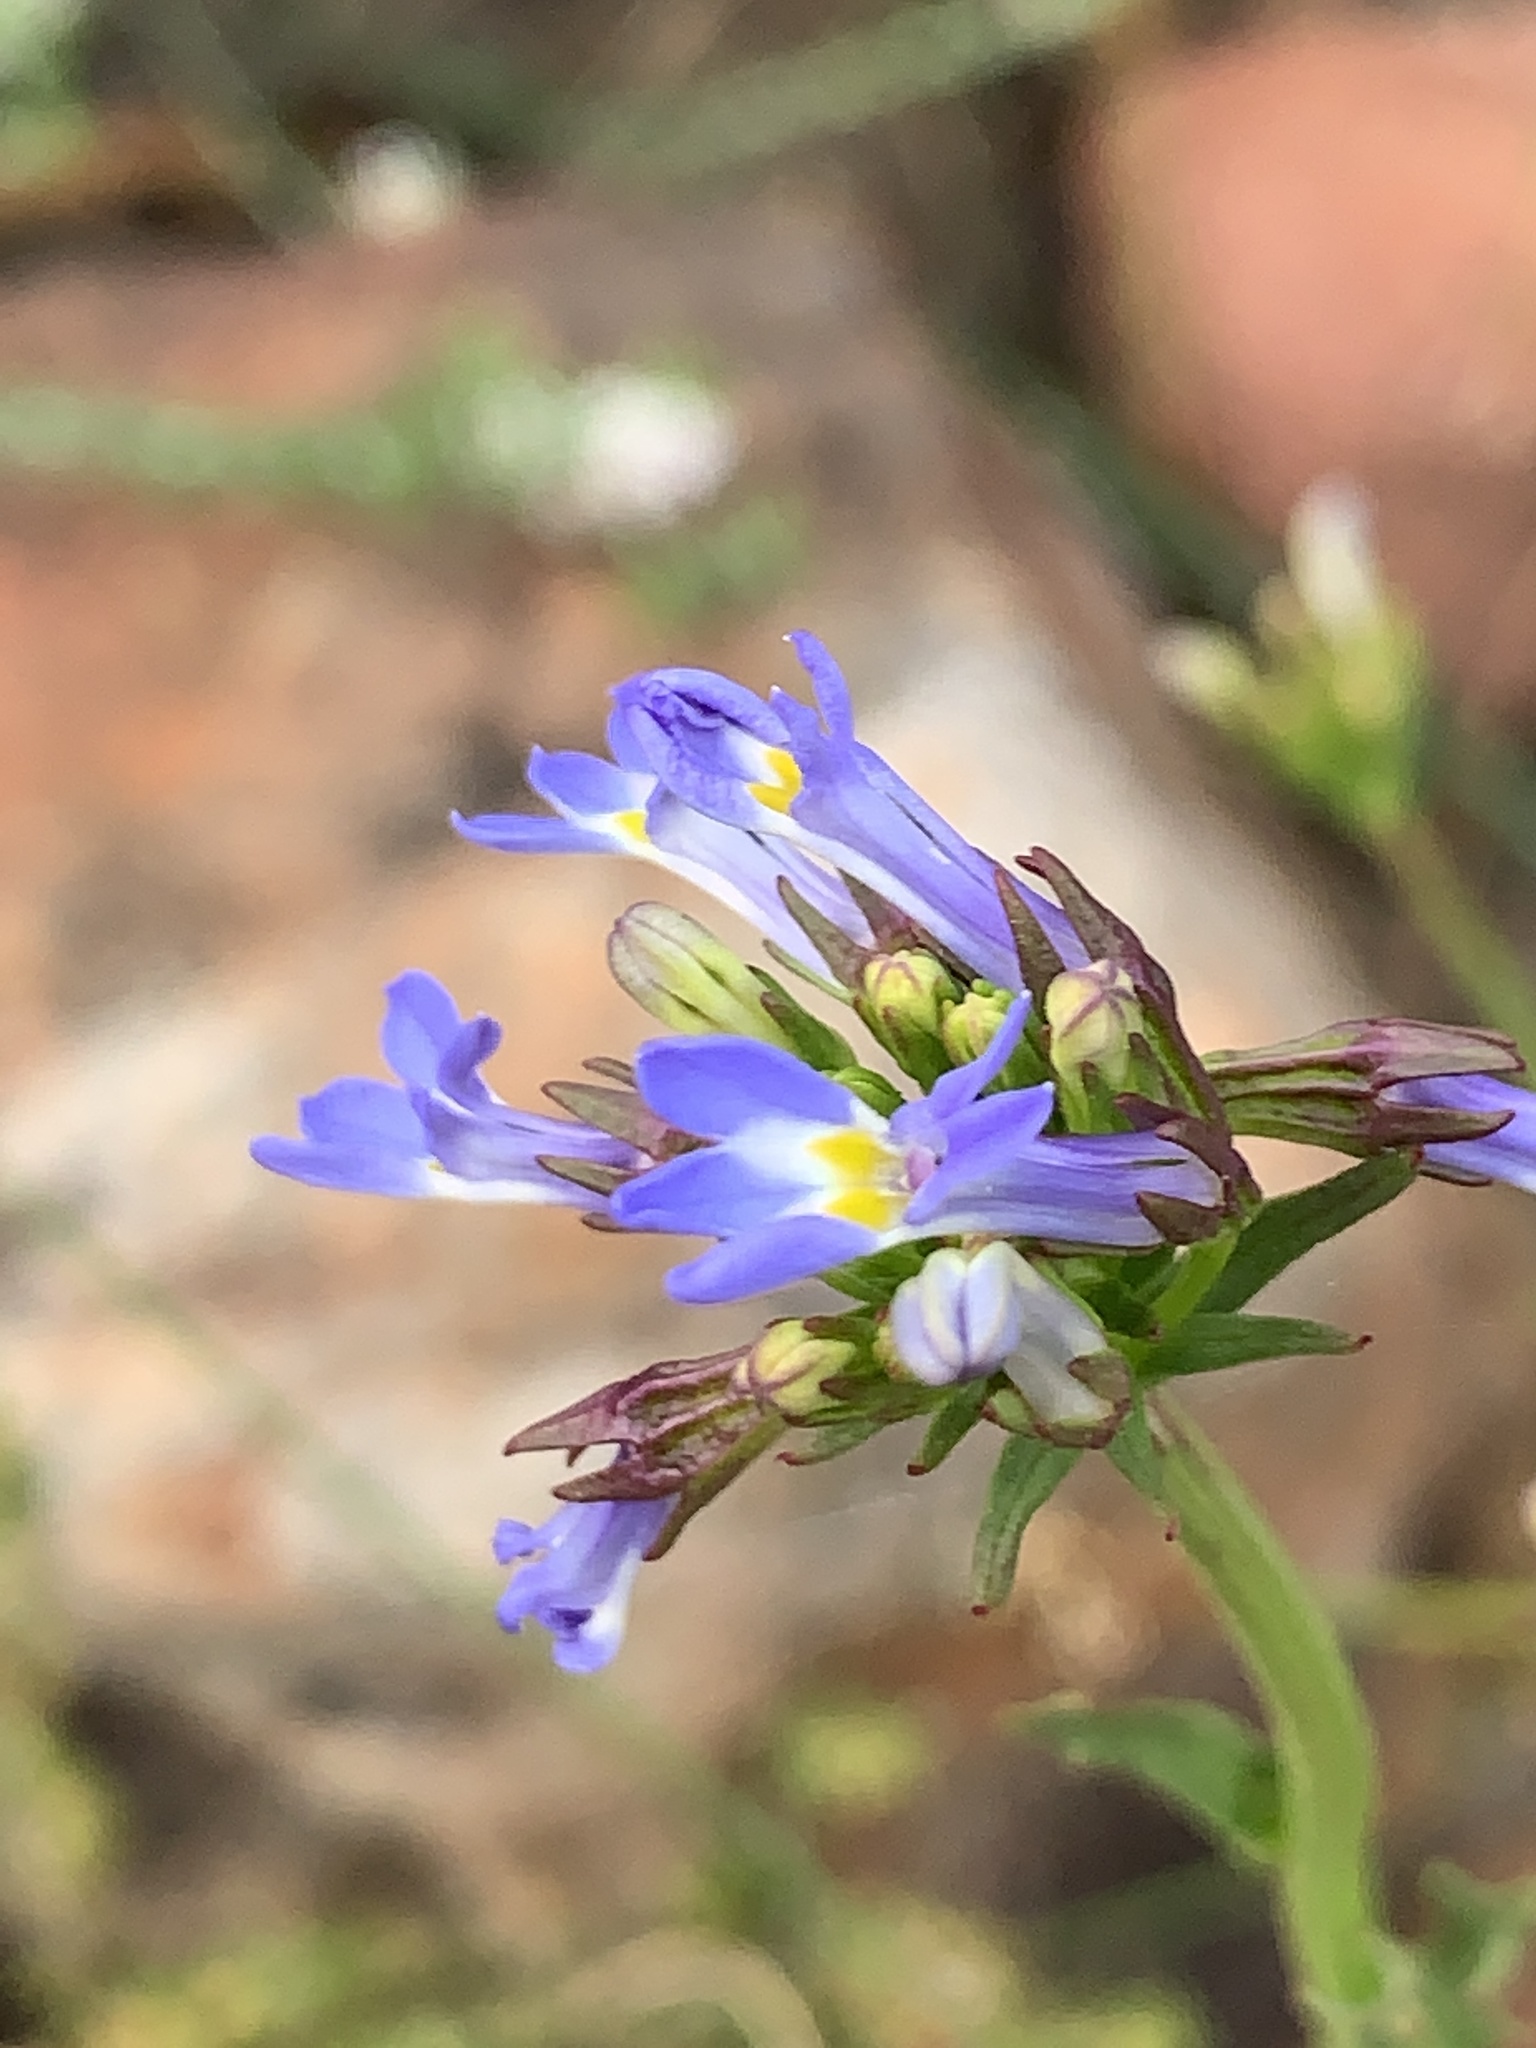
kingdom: Plantae
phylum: Tracheophyta
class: Magnoliopsida
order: Asterales
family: Campanulaceae
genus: Lobelia
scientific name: Lobelia comosa
